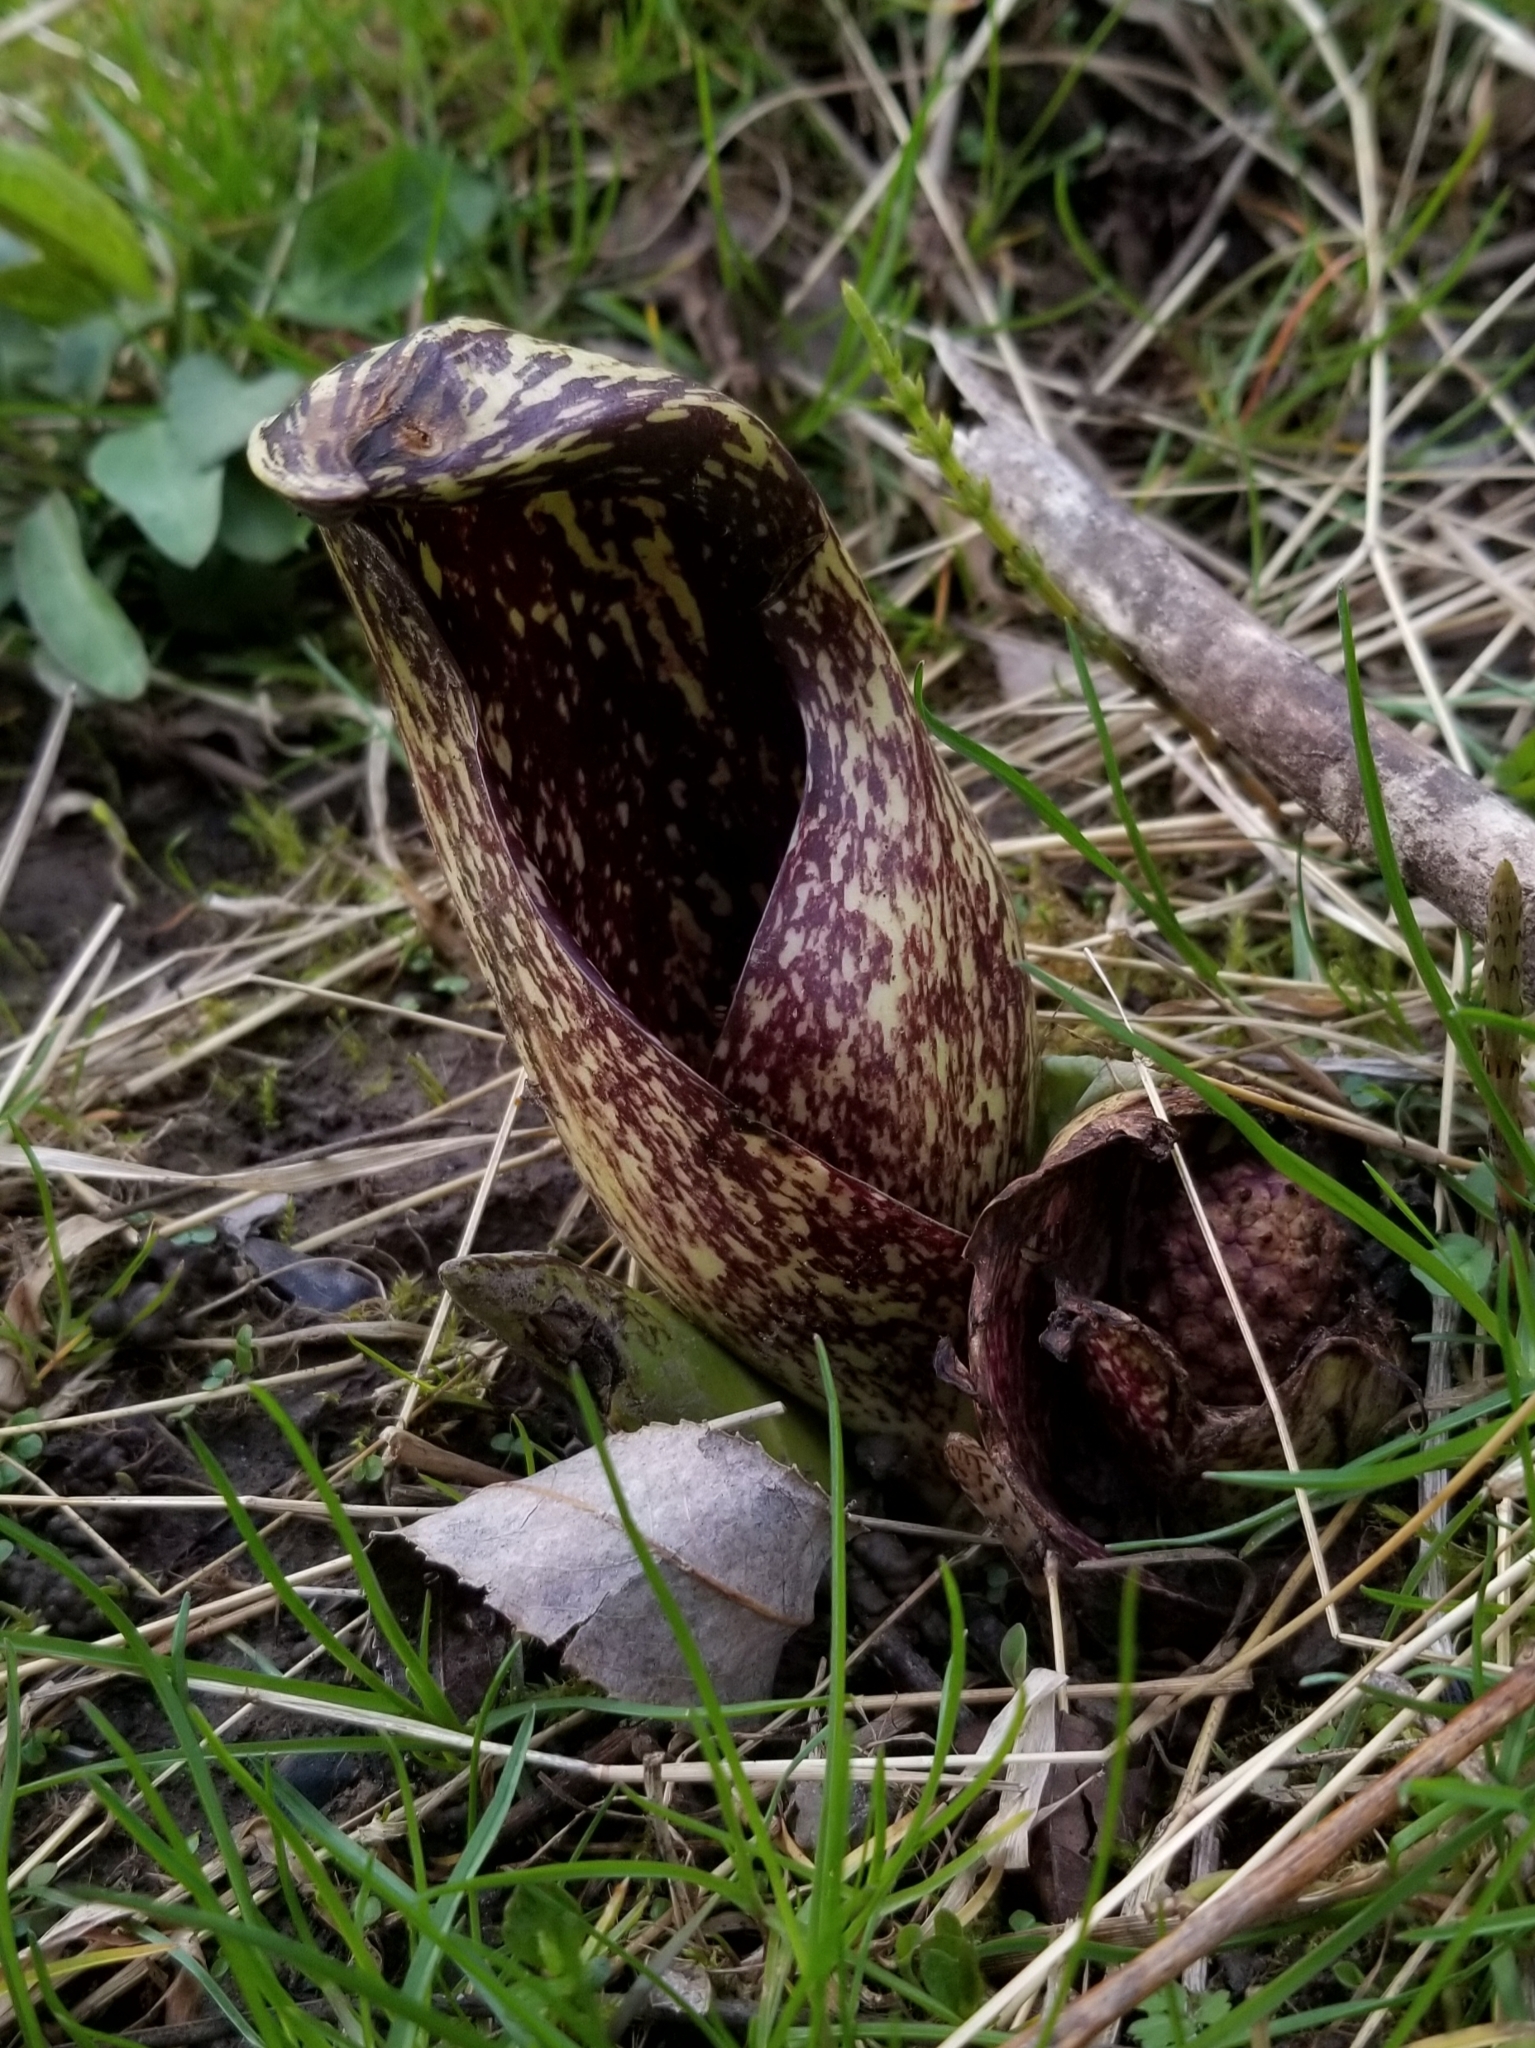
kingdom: Plantae
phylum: Tracheophyta
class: Liliopsida
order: Alismatales
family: Araceae
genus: Symplocarpus
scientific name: Symplocarpus foetidus
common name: Eastern skunk cabbage
